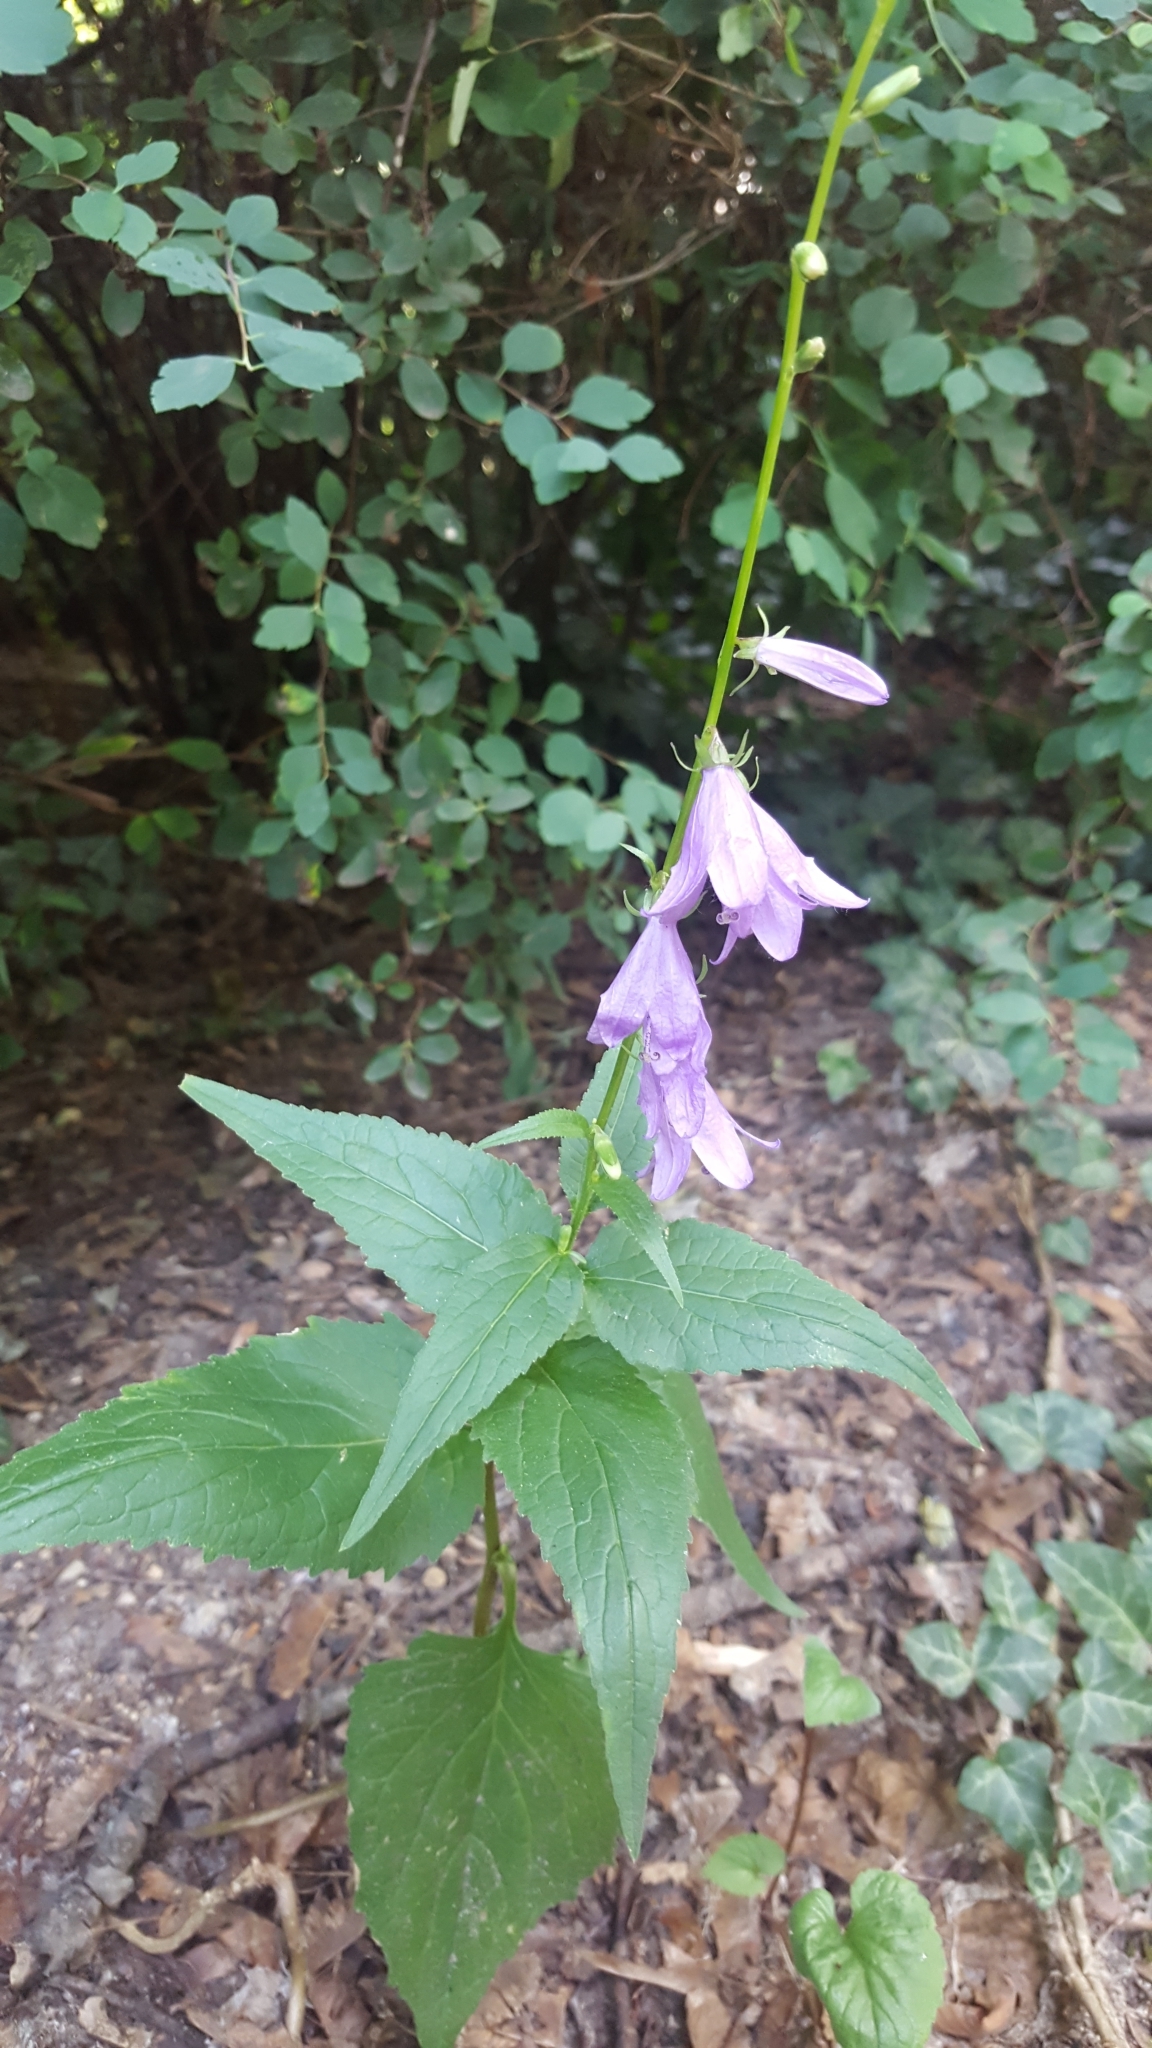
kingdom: Plantae
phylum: Tracheophyta
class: Magnoliopsida
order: Asterales
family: Campanulaceae
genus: Campanula
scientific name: Campanula rapunculoides
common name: Creeping bellflower
